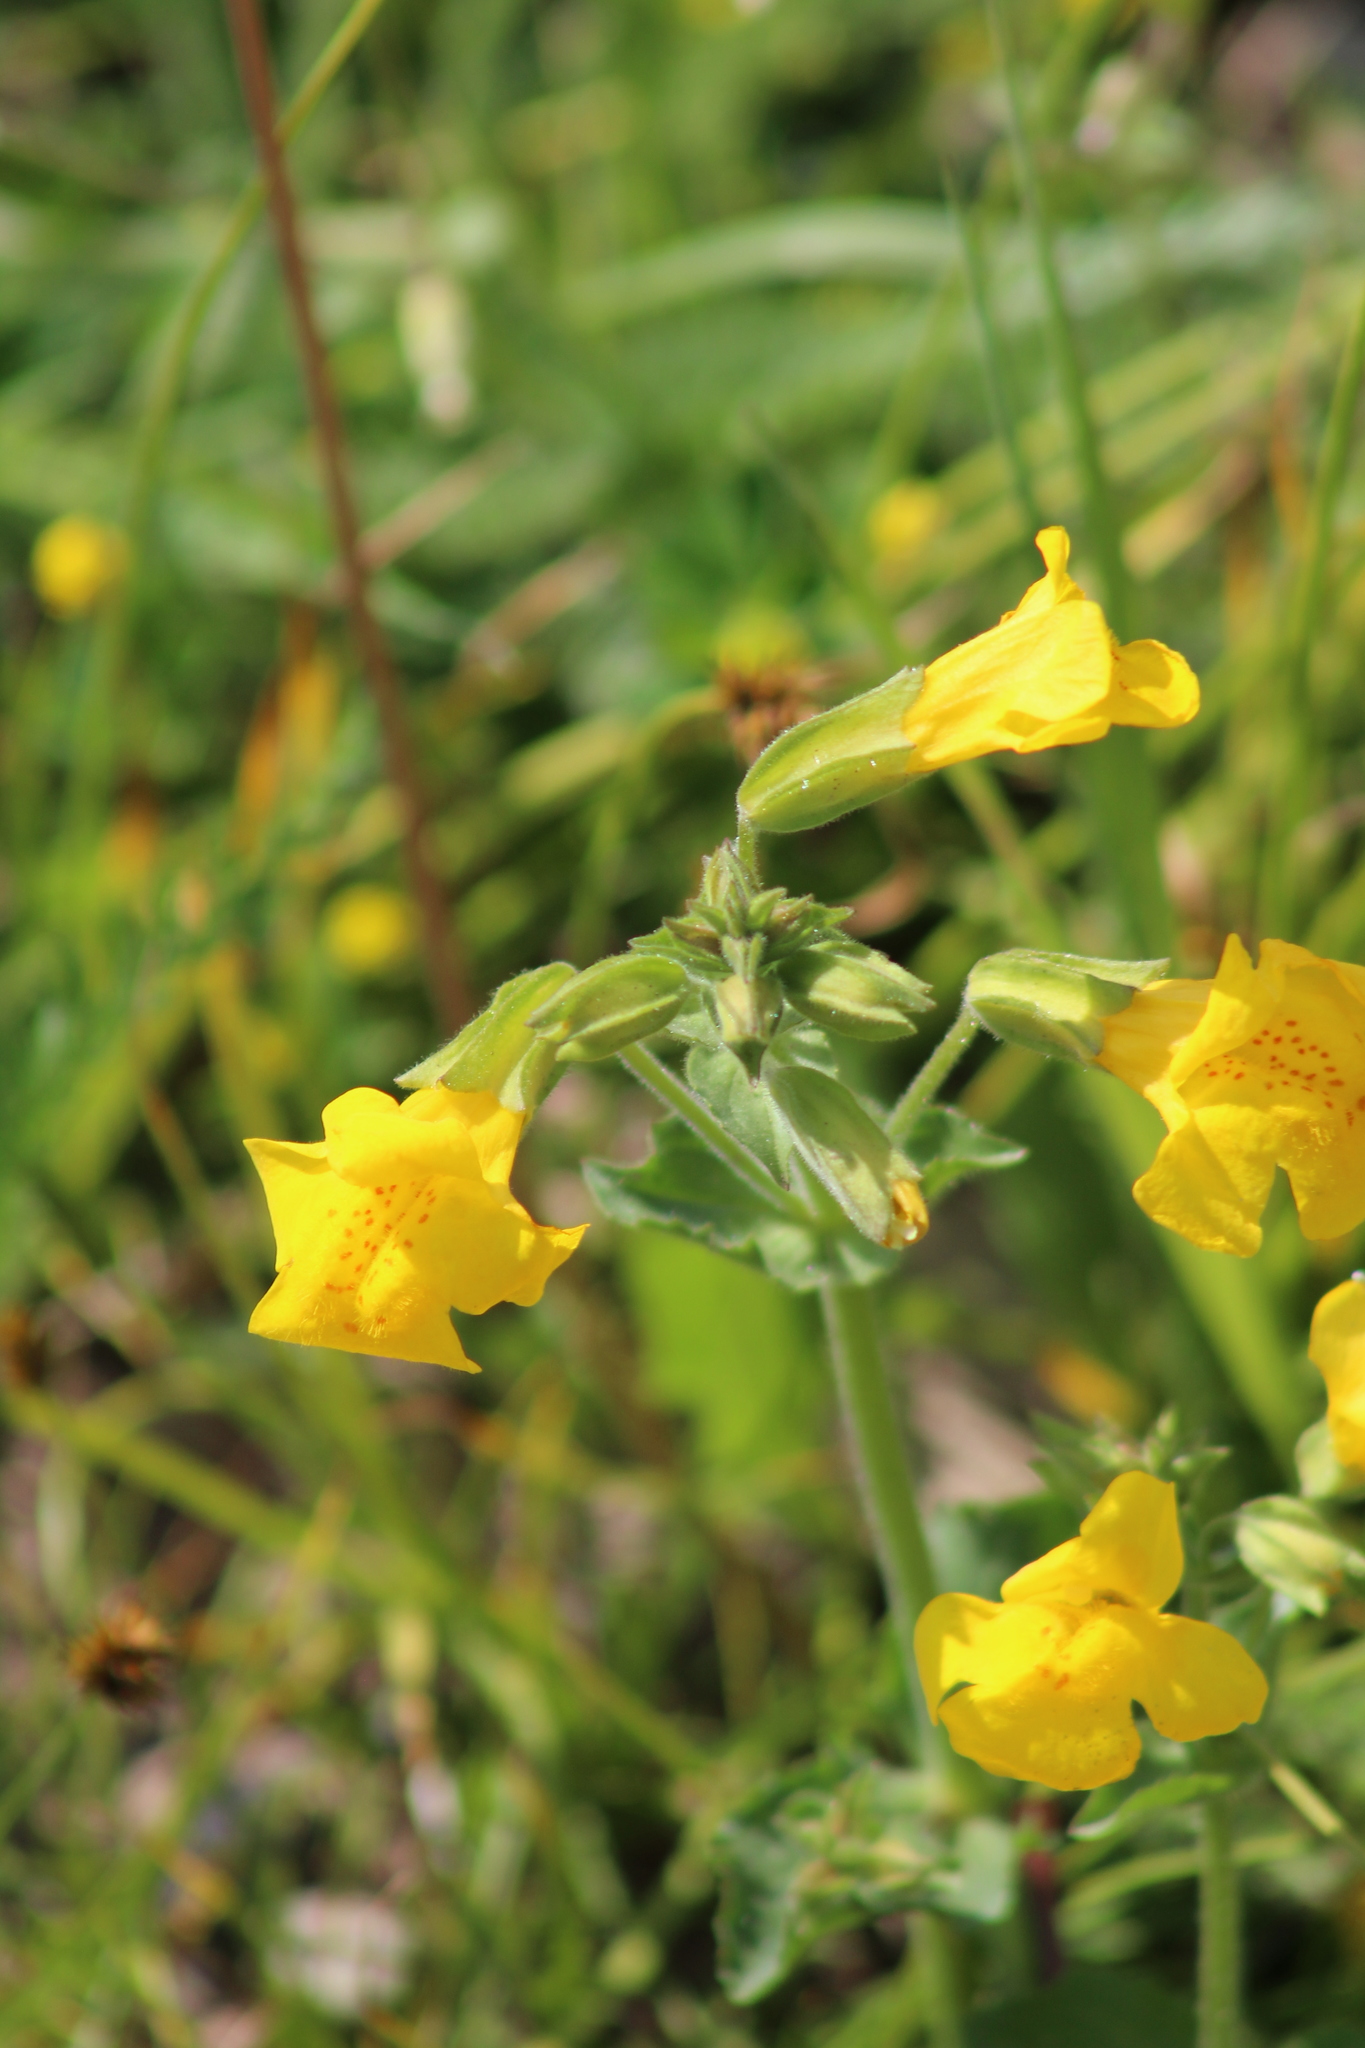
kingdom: Plantae
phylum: Tracheophyta
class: Magnoliopsida
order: Lamiales
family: Phrymaceae
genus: Erythranthe
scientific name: Erythranthe guttata
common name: Monkeyflower
